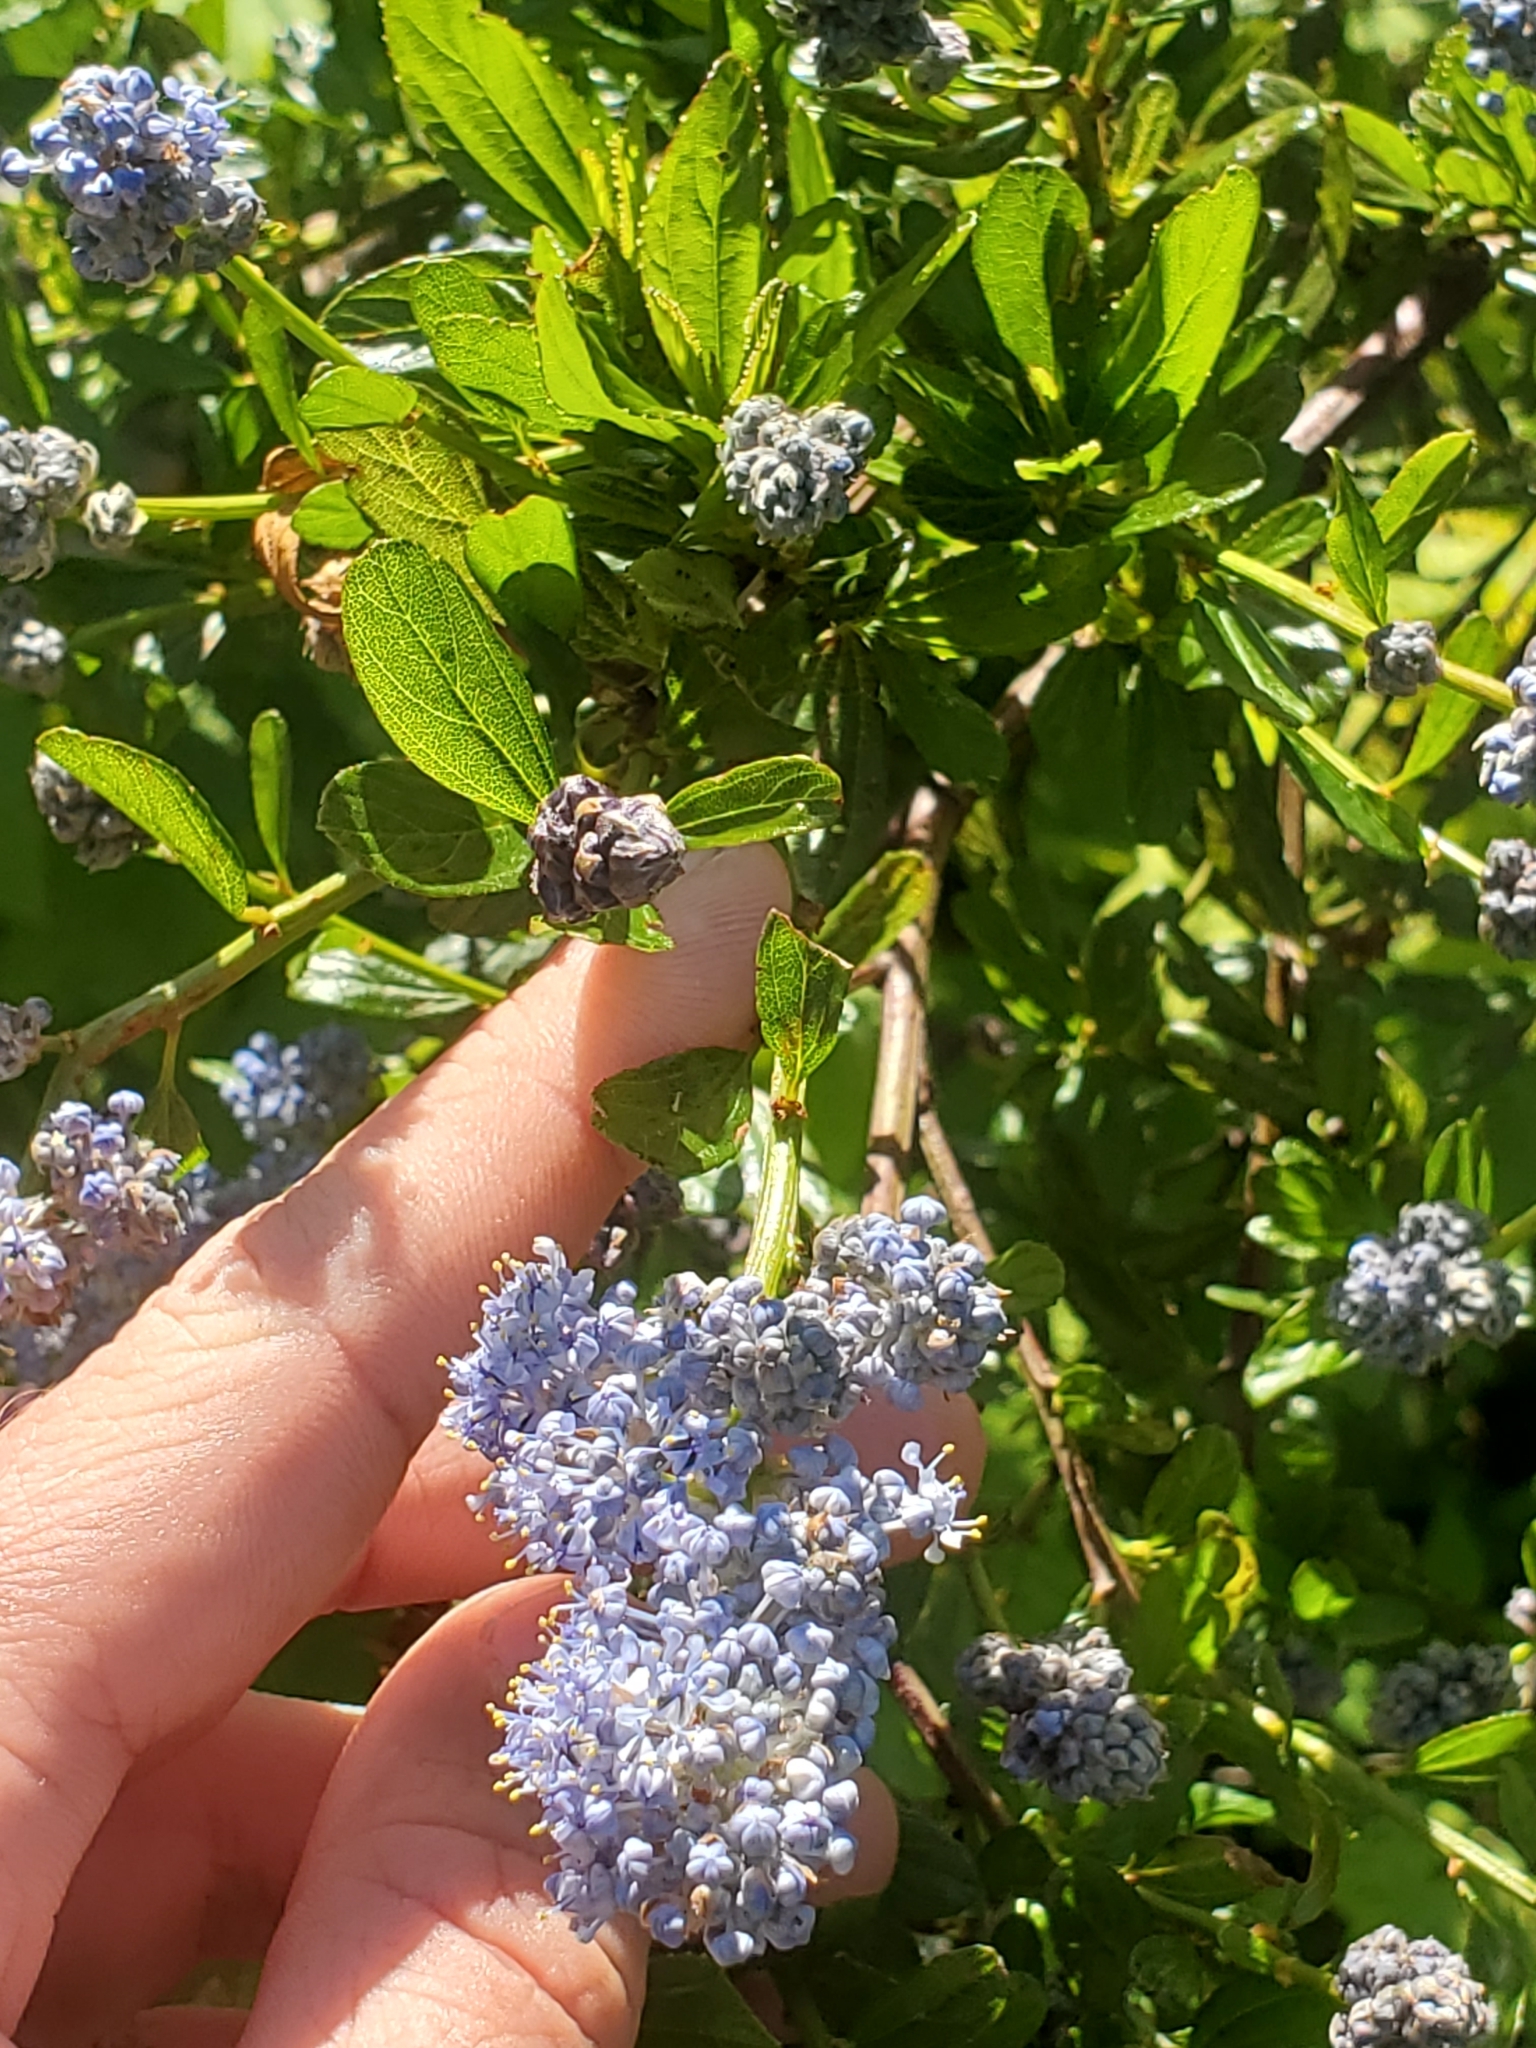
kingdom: Plantae
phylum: Tracheophyta
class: Magnoliopsida
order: Rosales
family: Rhamnaceae
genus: Ceanothus
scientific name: Ceanothus thyrsiflorus
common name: California-lilac
